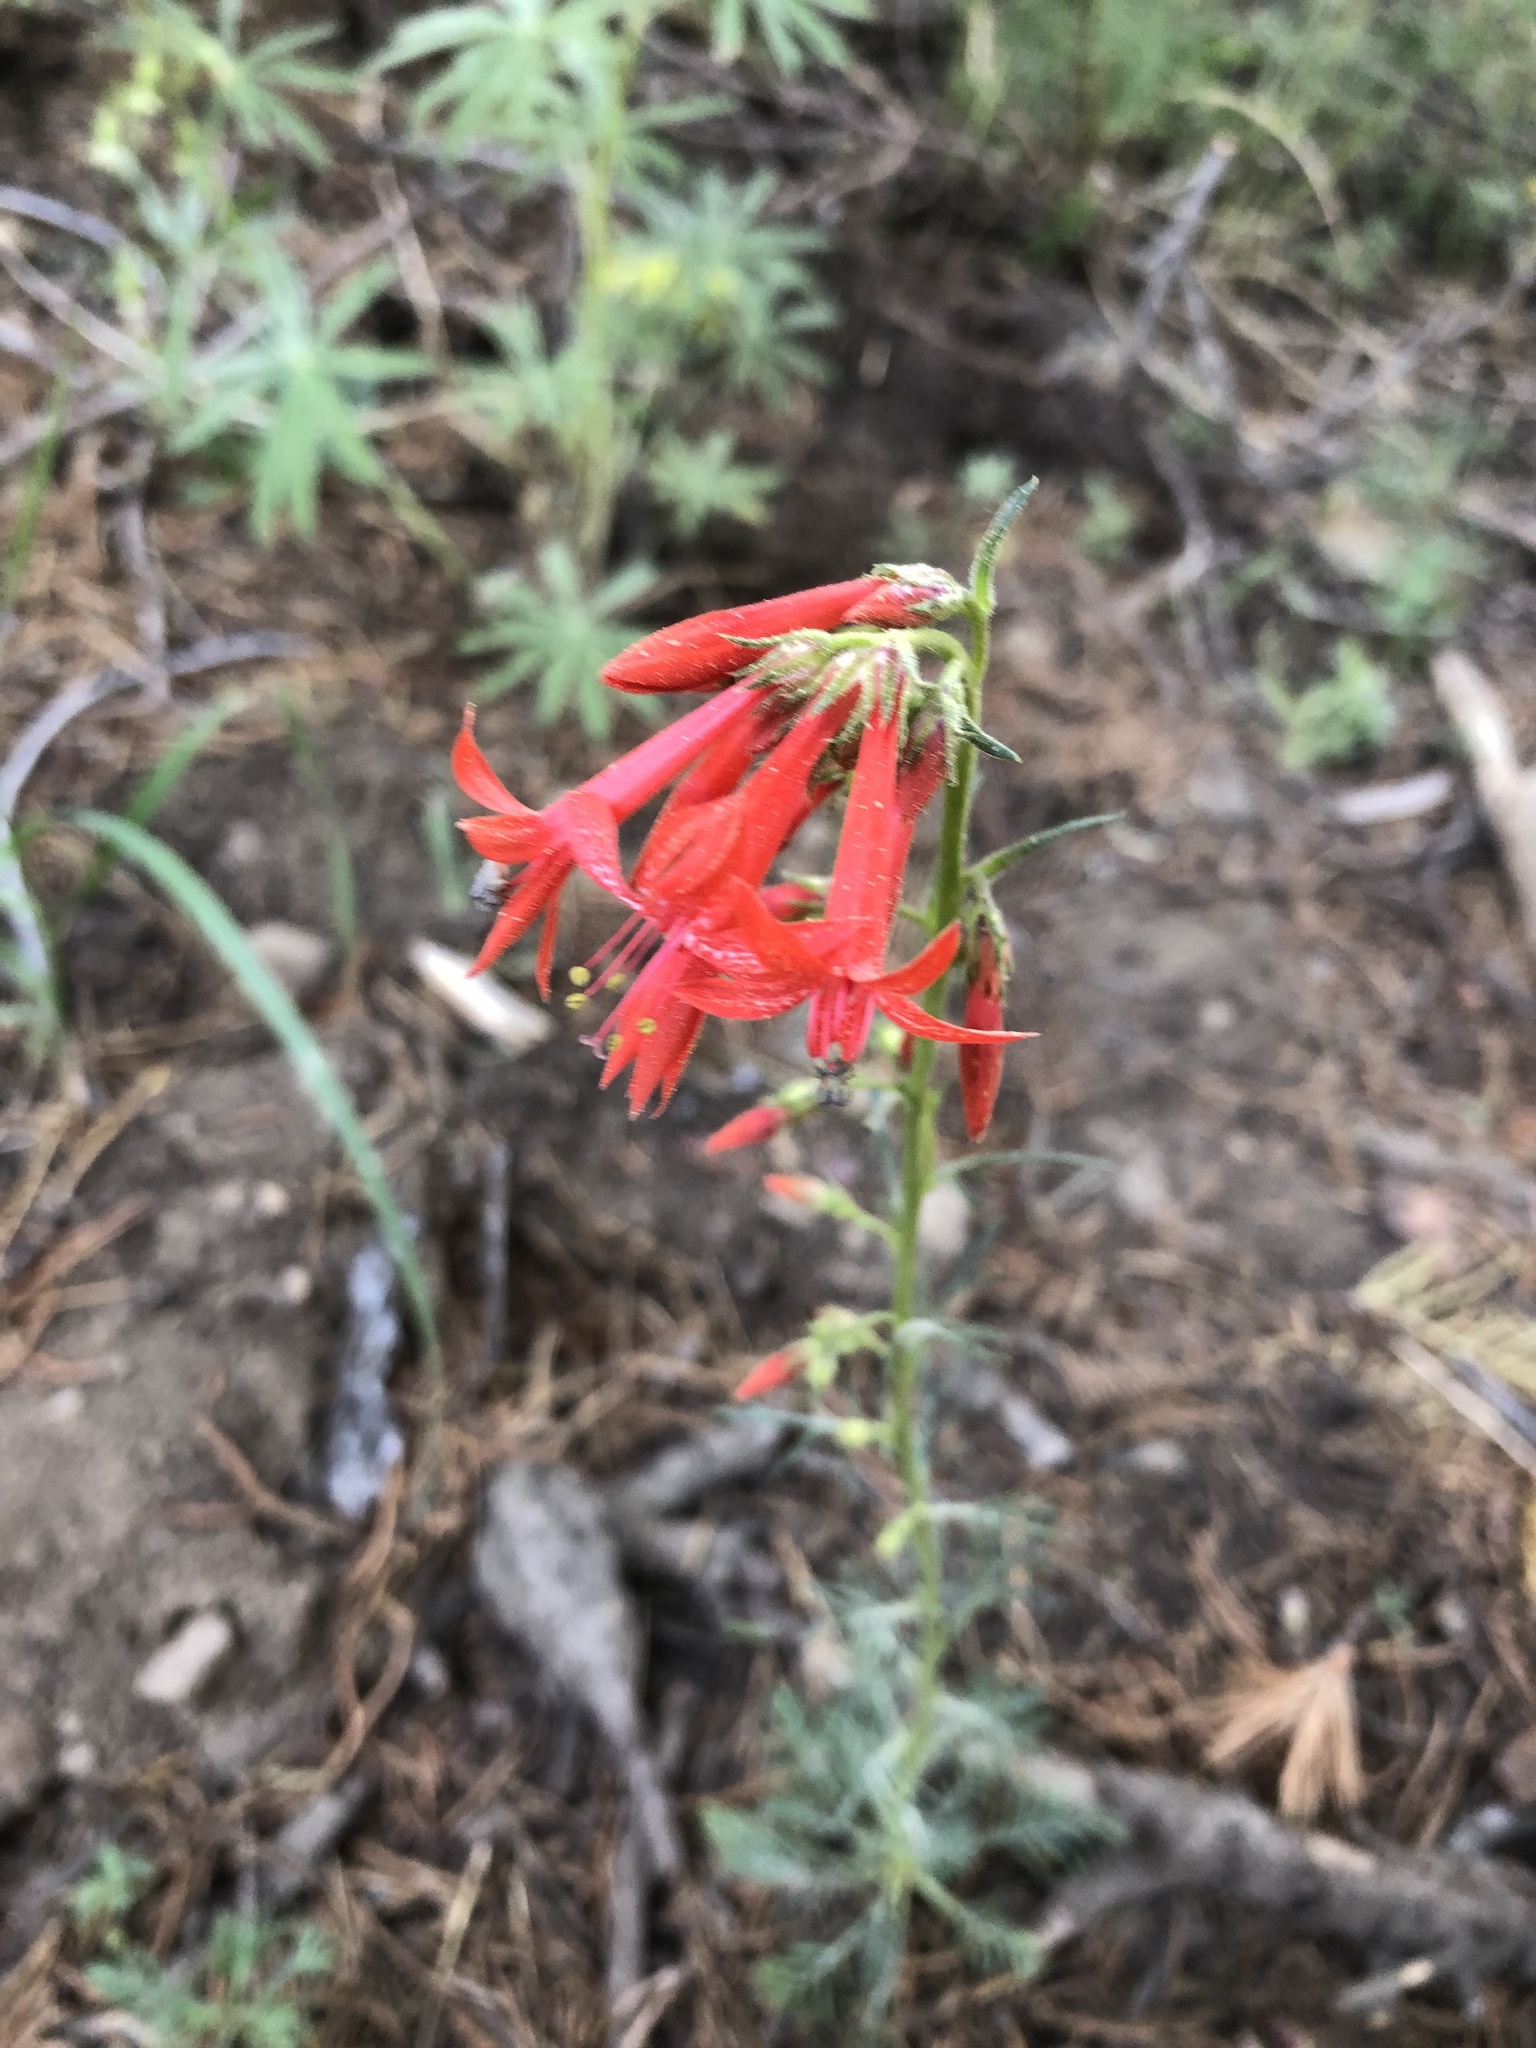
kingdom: Plantae
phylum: Tracheophyta
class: Magnoliopsida
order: Ericales
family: Polemoniaceae
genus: Ipomopsis
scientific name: Ipomopsis aggregata
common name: Scarlet gilia
